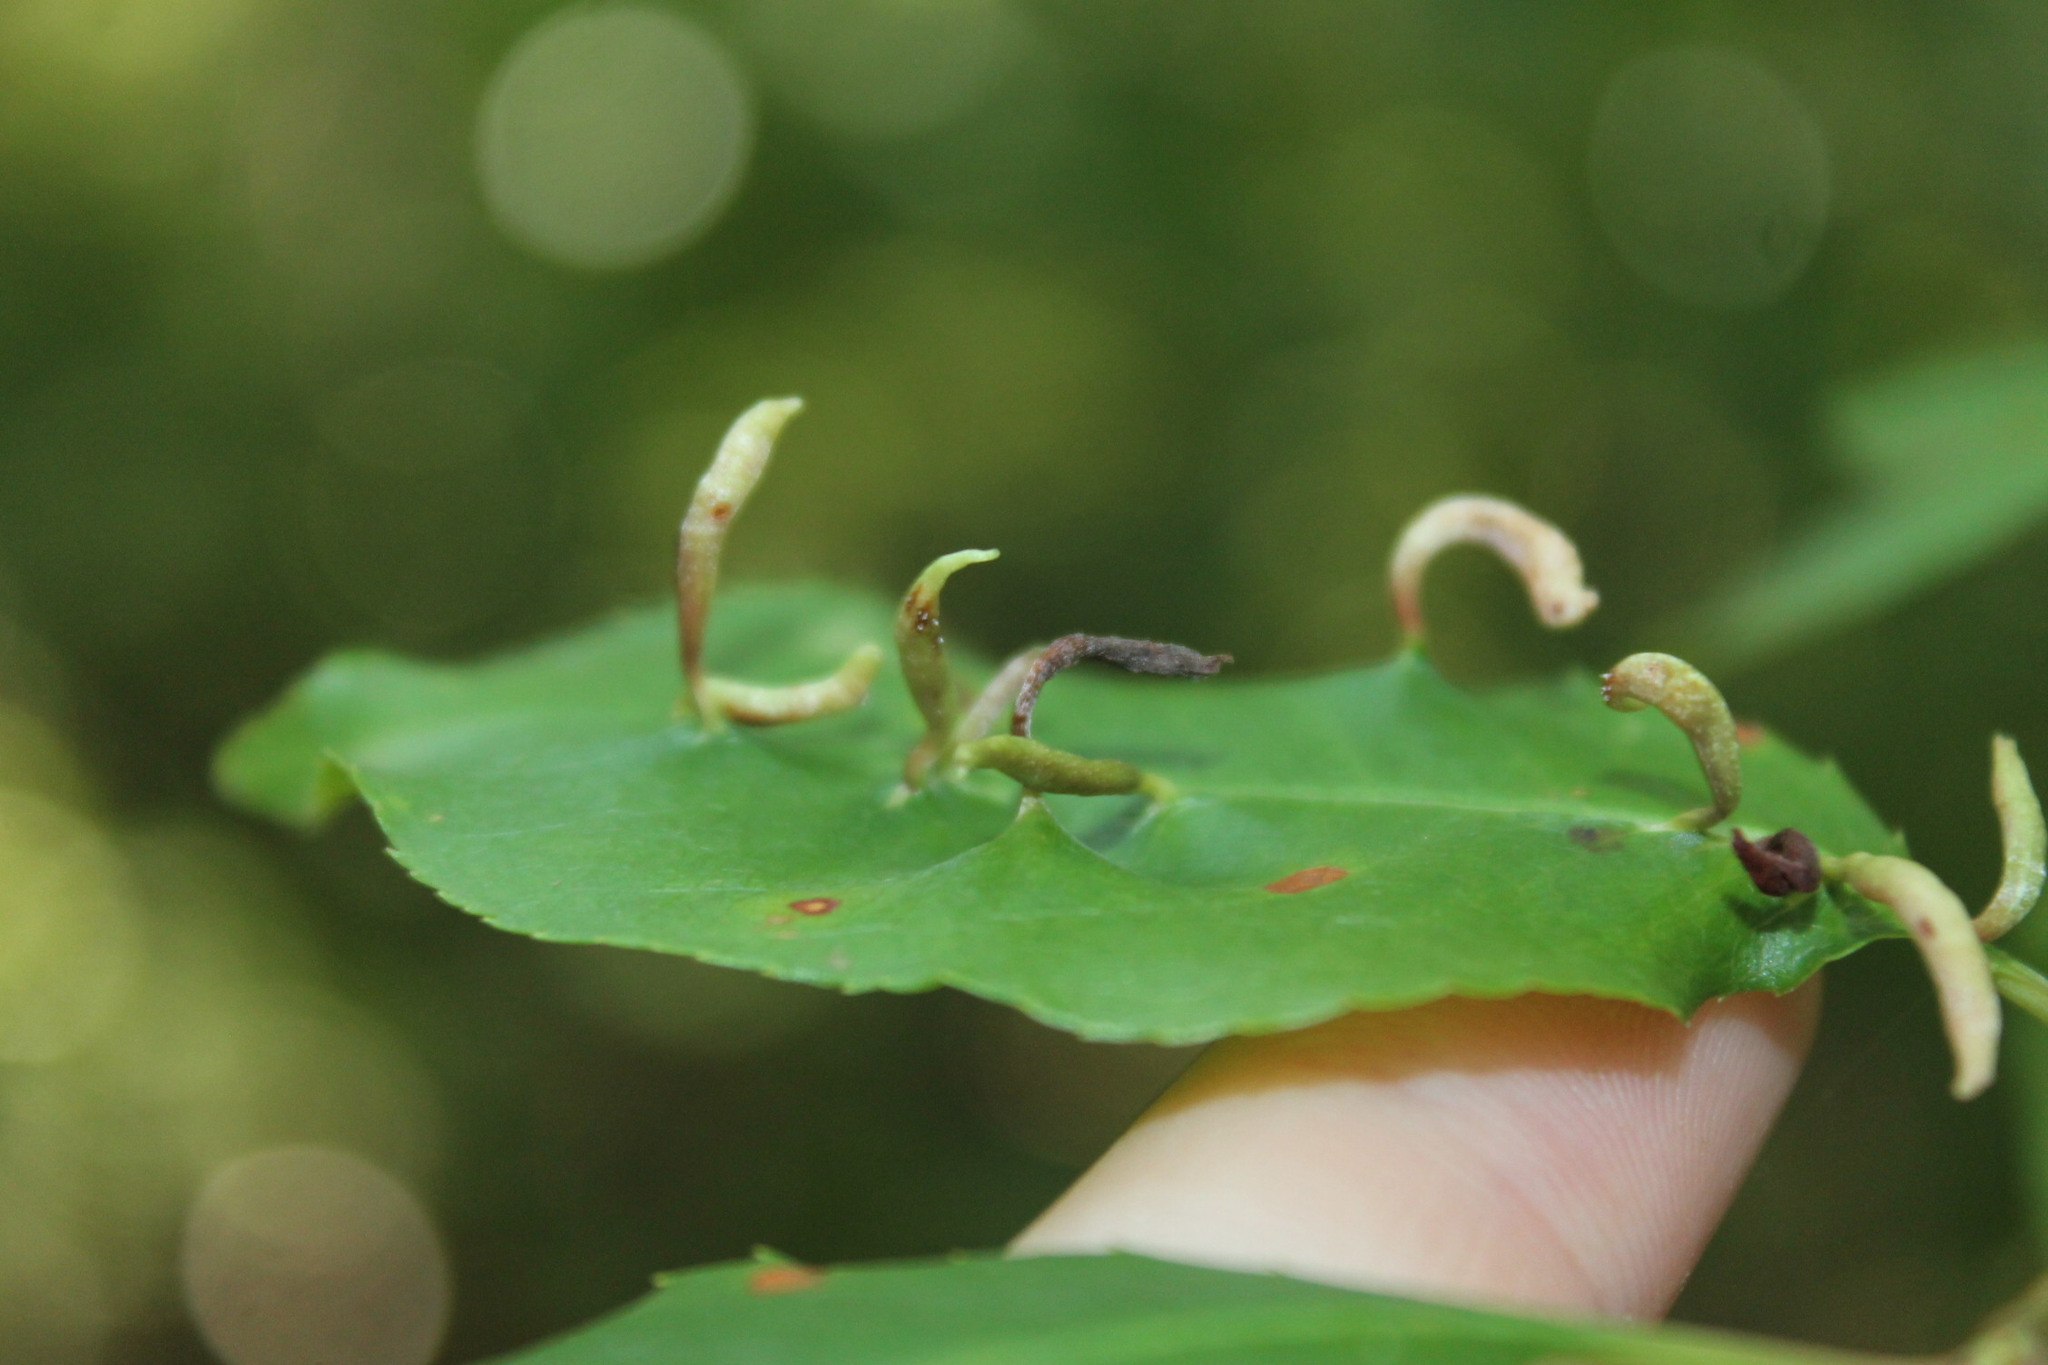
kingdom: Animalia
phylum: Arthropoda
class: Arachnida
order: Trombidiformes
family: Eriophyidae
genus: Eriophyes
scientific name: Eriophyes
